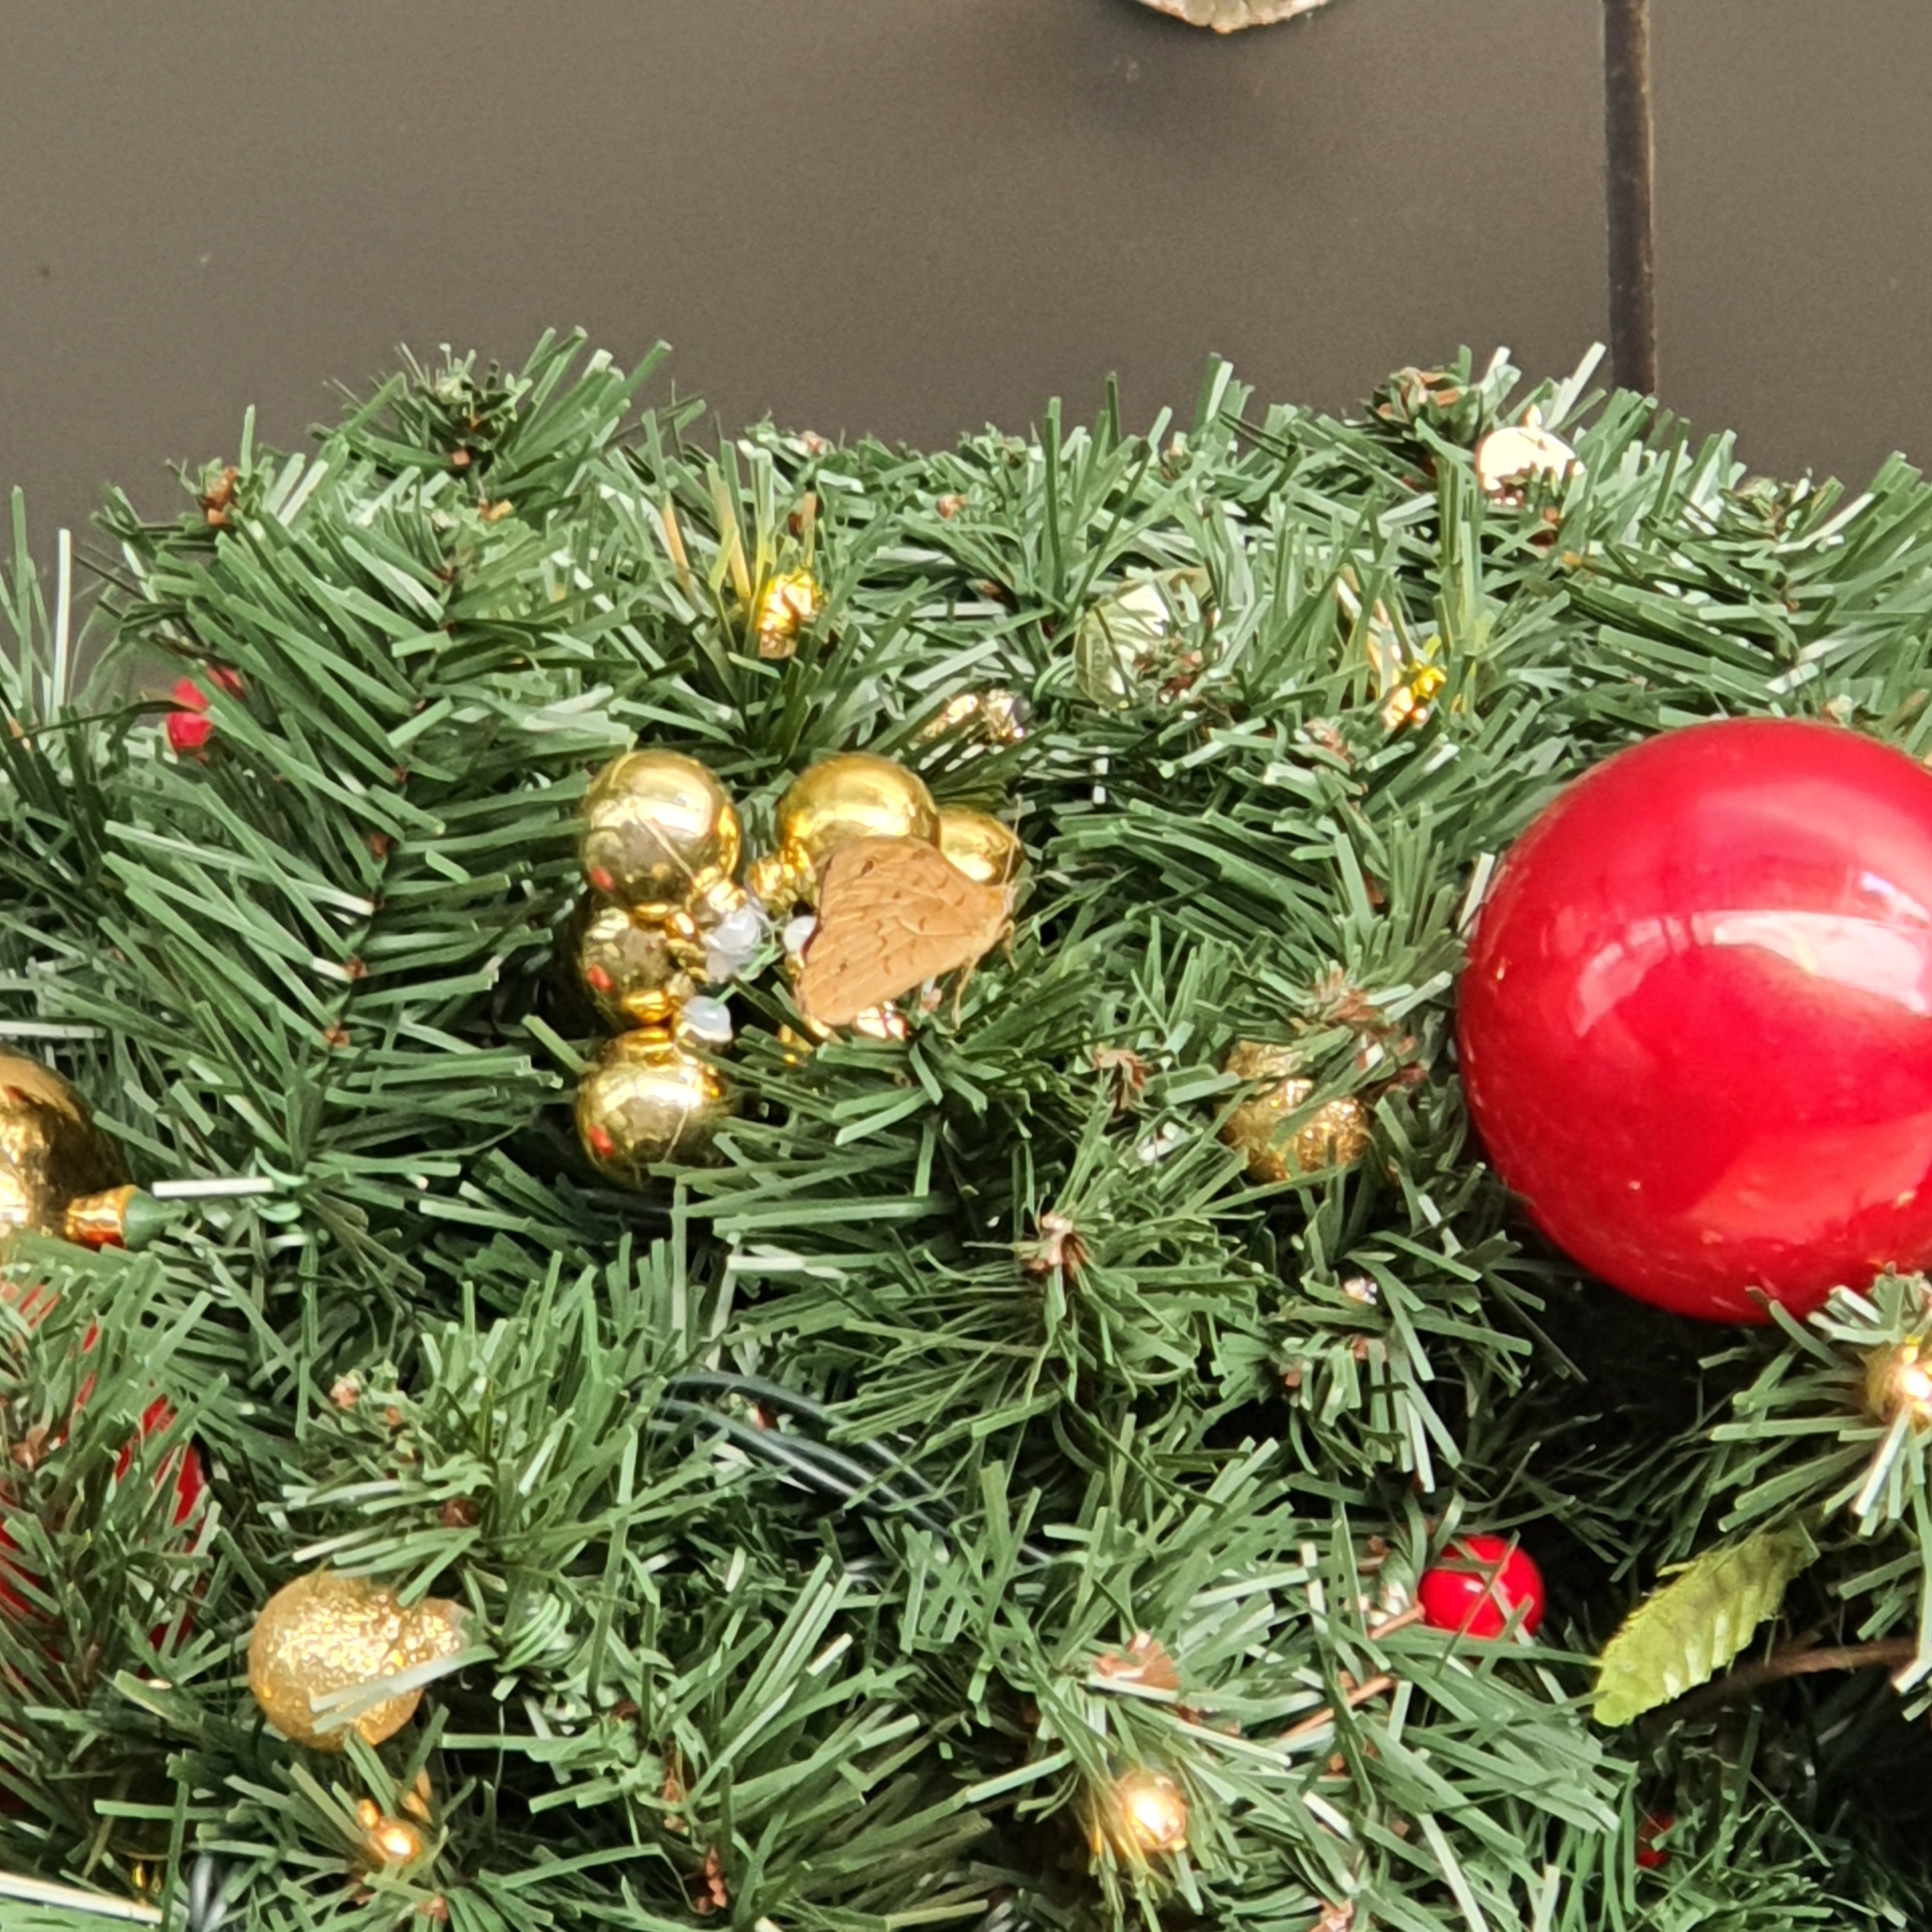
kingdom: Animalia
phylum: Arthropoda
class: Insecta
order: Lepidoptera
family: Nymphalidae
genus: Heteronympha
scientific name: Heteronympha merope
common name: Common brown
